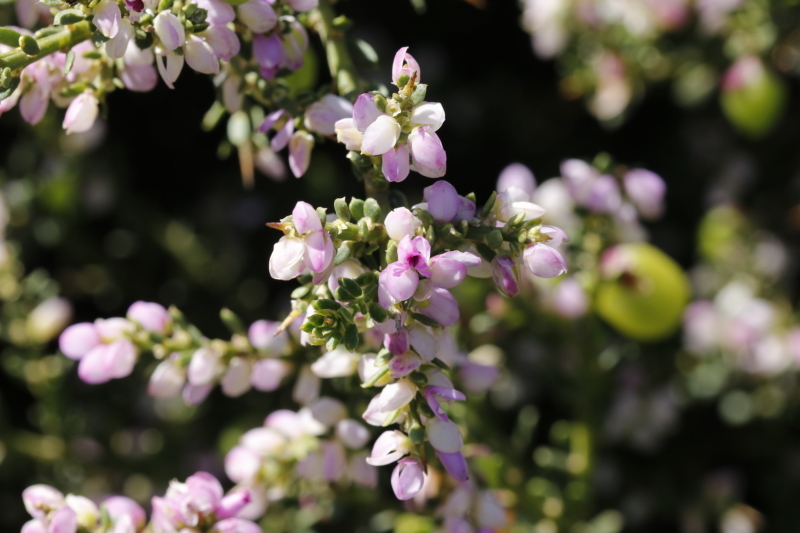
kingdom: Plantae
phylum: Tracheophyta
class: Magnoliopsida
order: Fabales
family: Polygalaceae
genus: Muraltia
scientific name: Muraltia spinosa
